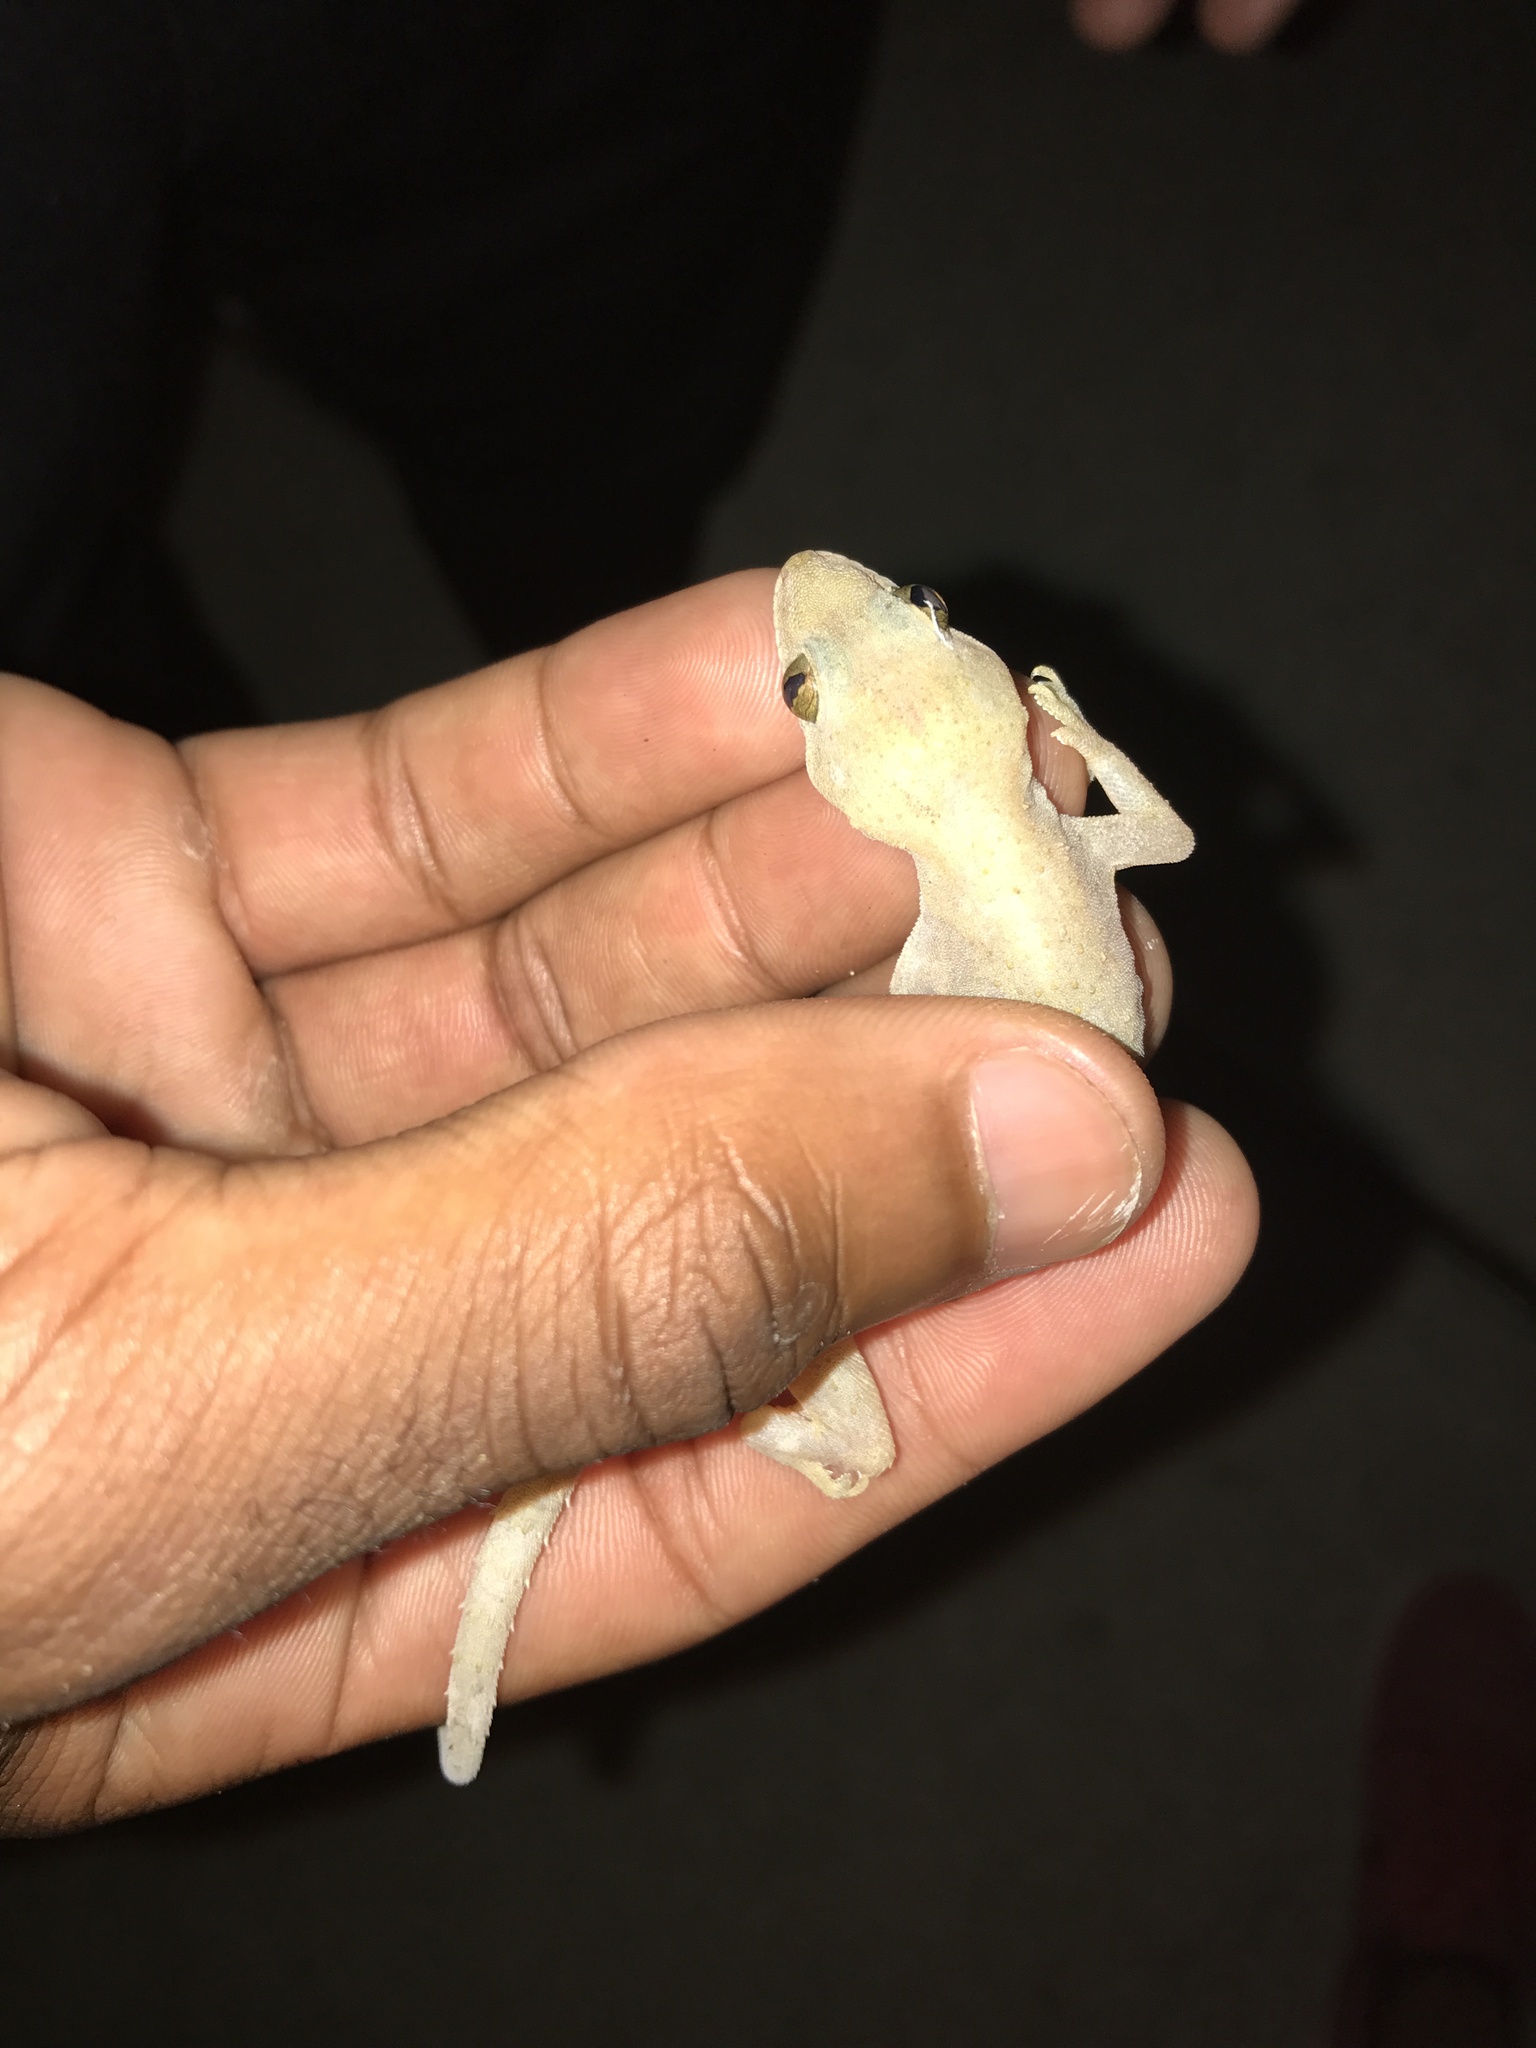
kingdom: Animalia
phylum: Chordata
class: Squamata
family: Gekkonidae
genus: Hemidactylus
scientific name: Hemidactylus mabouia
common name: House gecko
